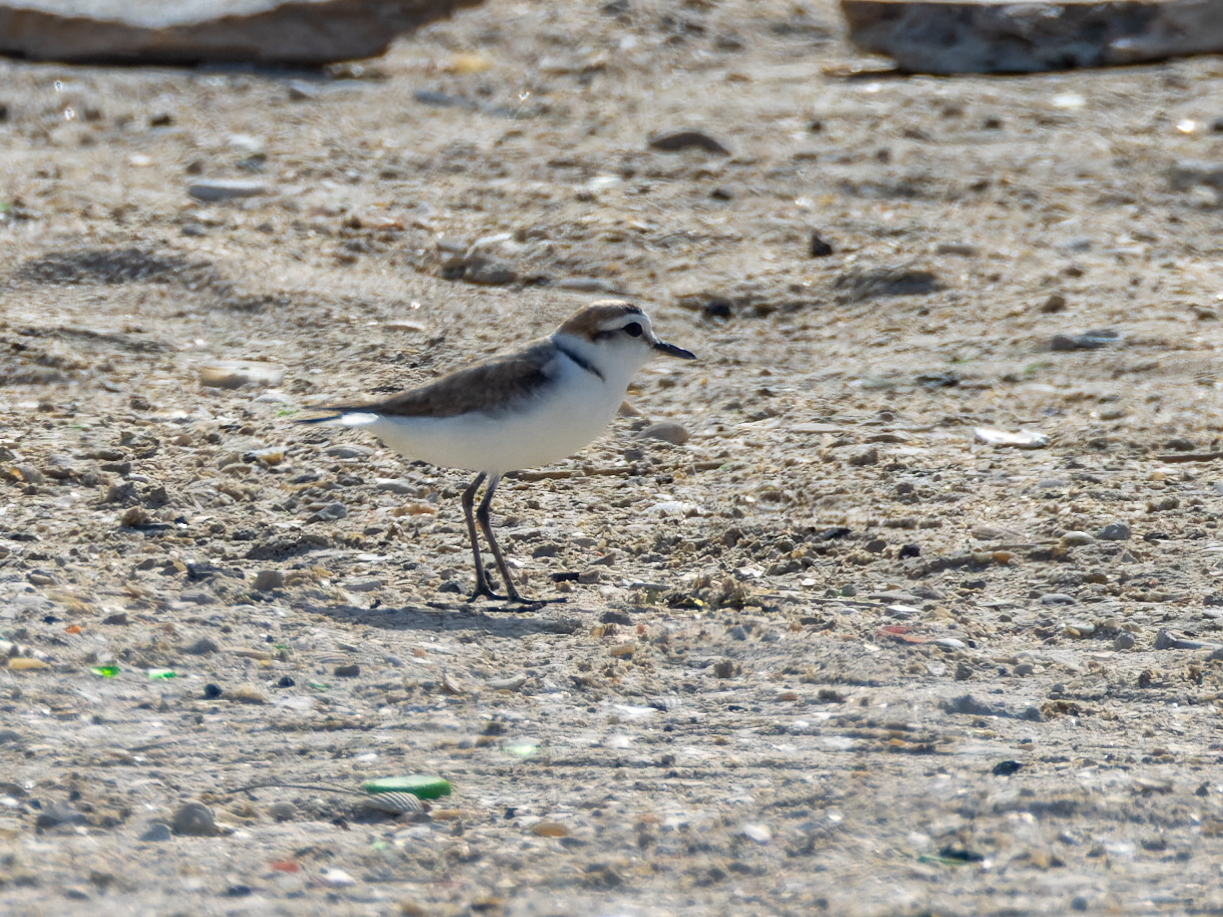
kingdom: Animalia
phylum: Chordata
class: Aves
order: Charadriiformes
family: Charadriidae
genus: Charadrius
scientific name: Charadrius alexandrinus
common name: Kentish plover
